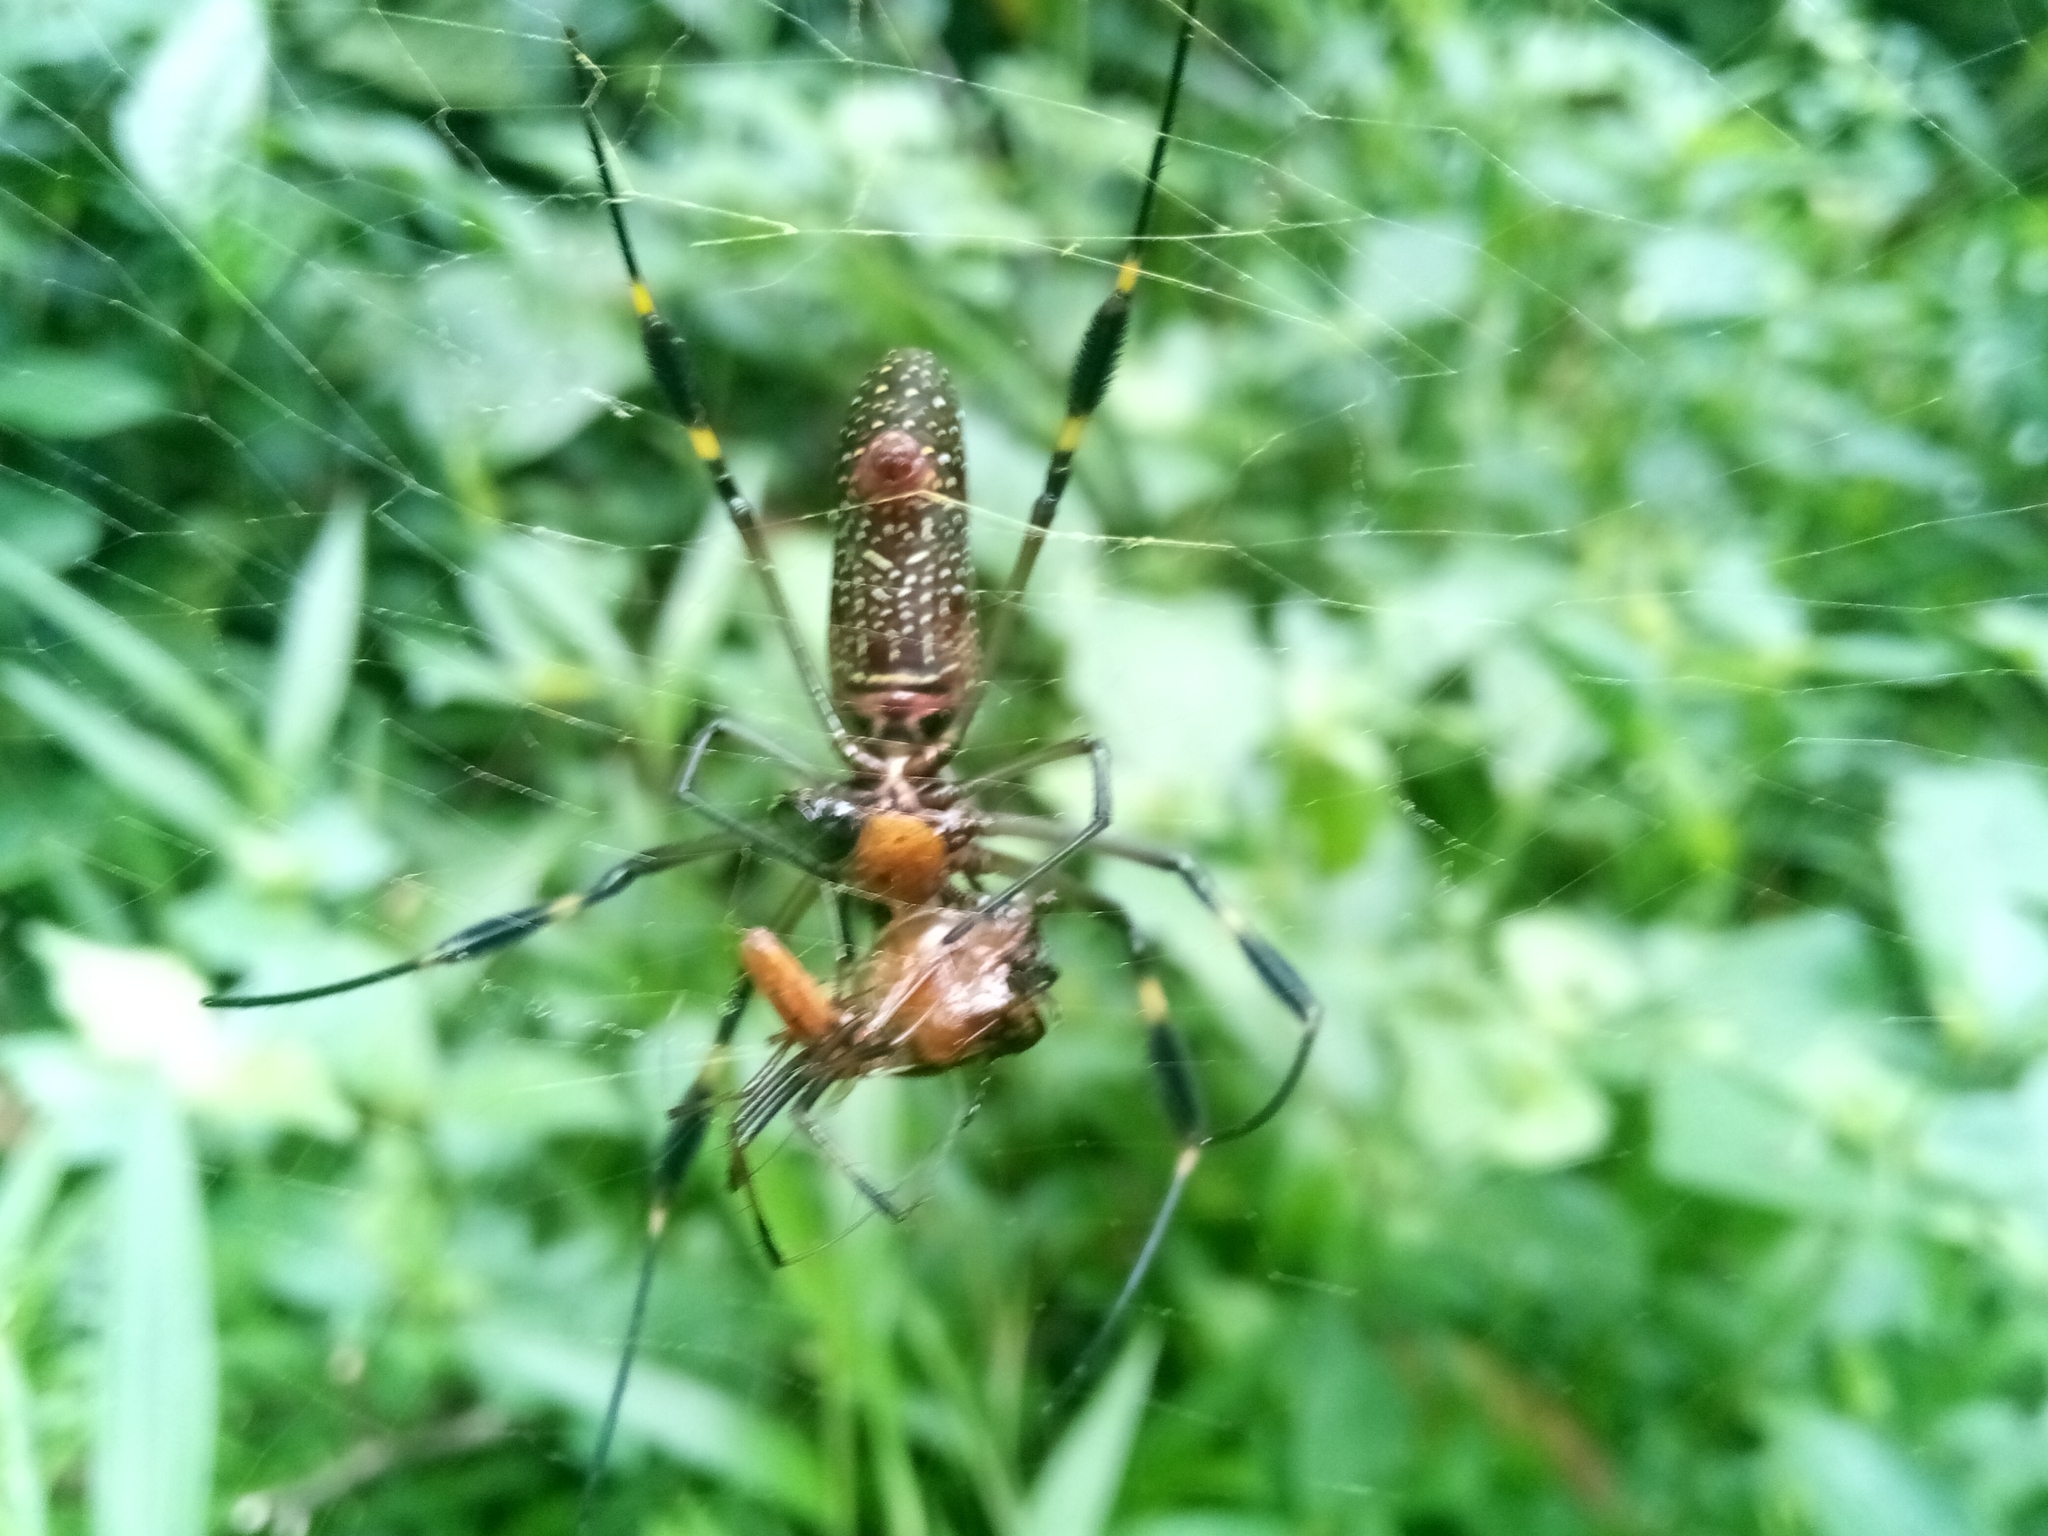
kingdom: Animalia
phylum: Arthropoda
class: Arachnida
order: Araneae
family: Araneidae
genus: Trichonephila
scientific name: Trichonephila clavipes
